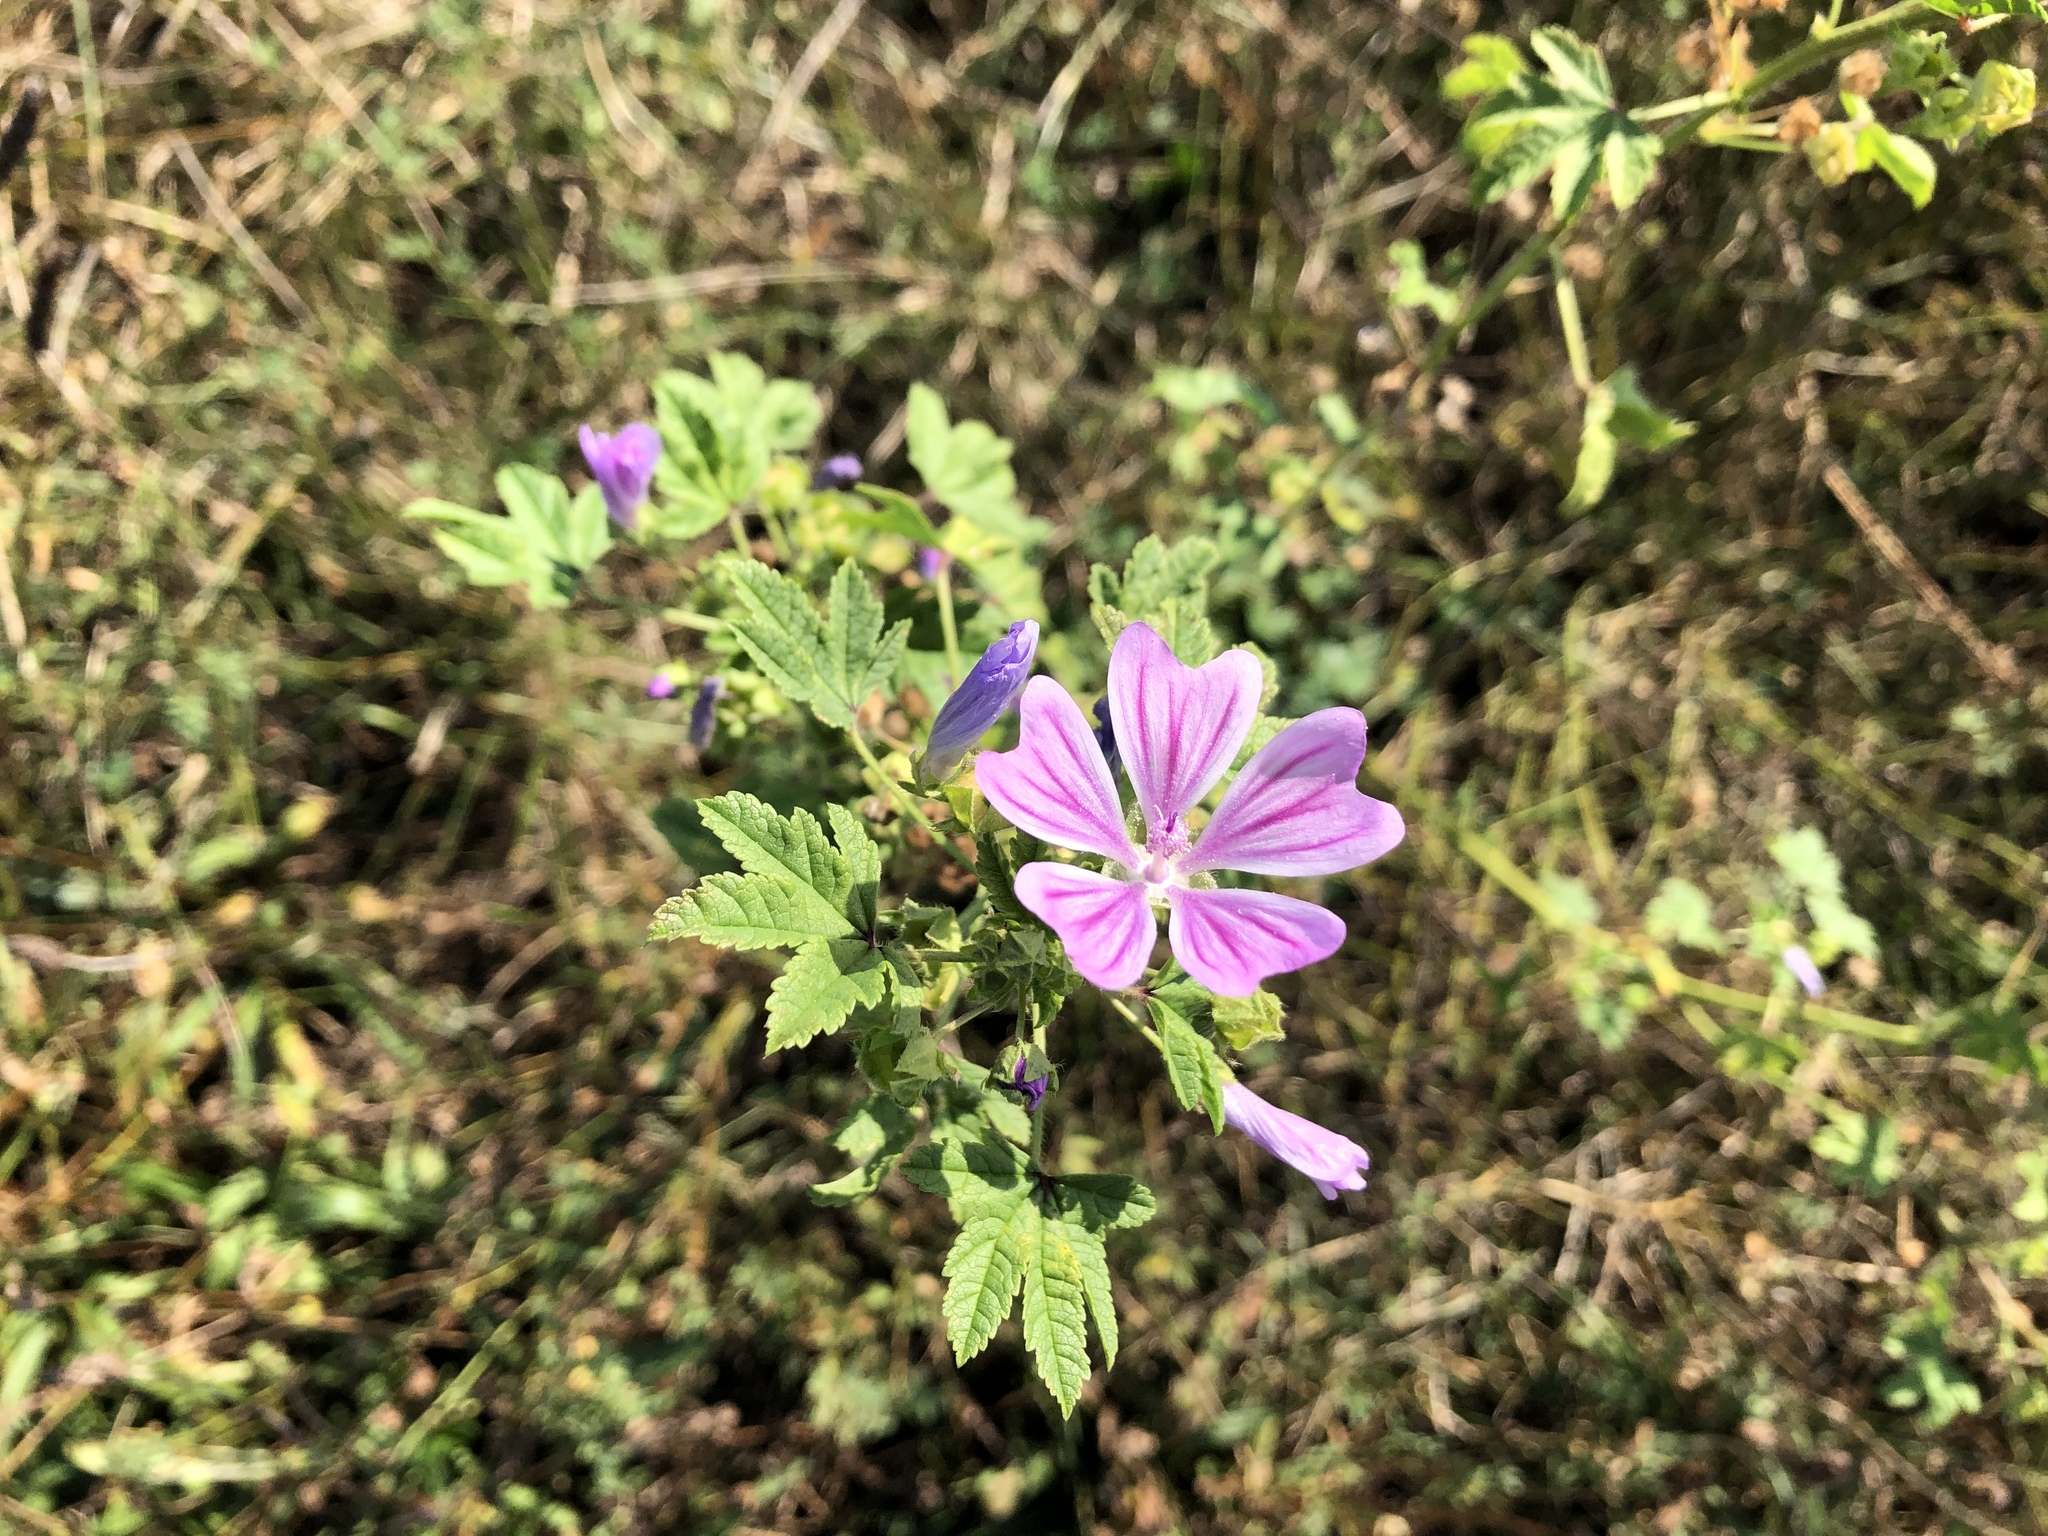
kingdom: Plantae
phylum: Tracheophyta
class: Magnoliopsida
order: Malvales
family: Malvaceae
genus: Malva
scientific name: Malva sylvestris
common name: Common mallow
